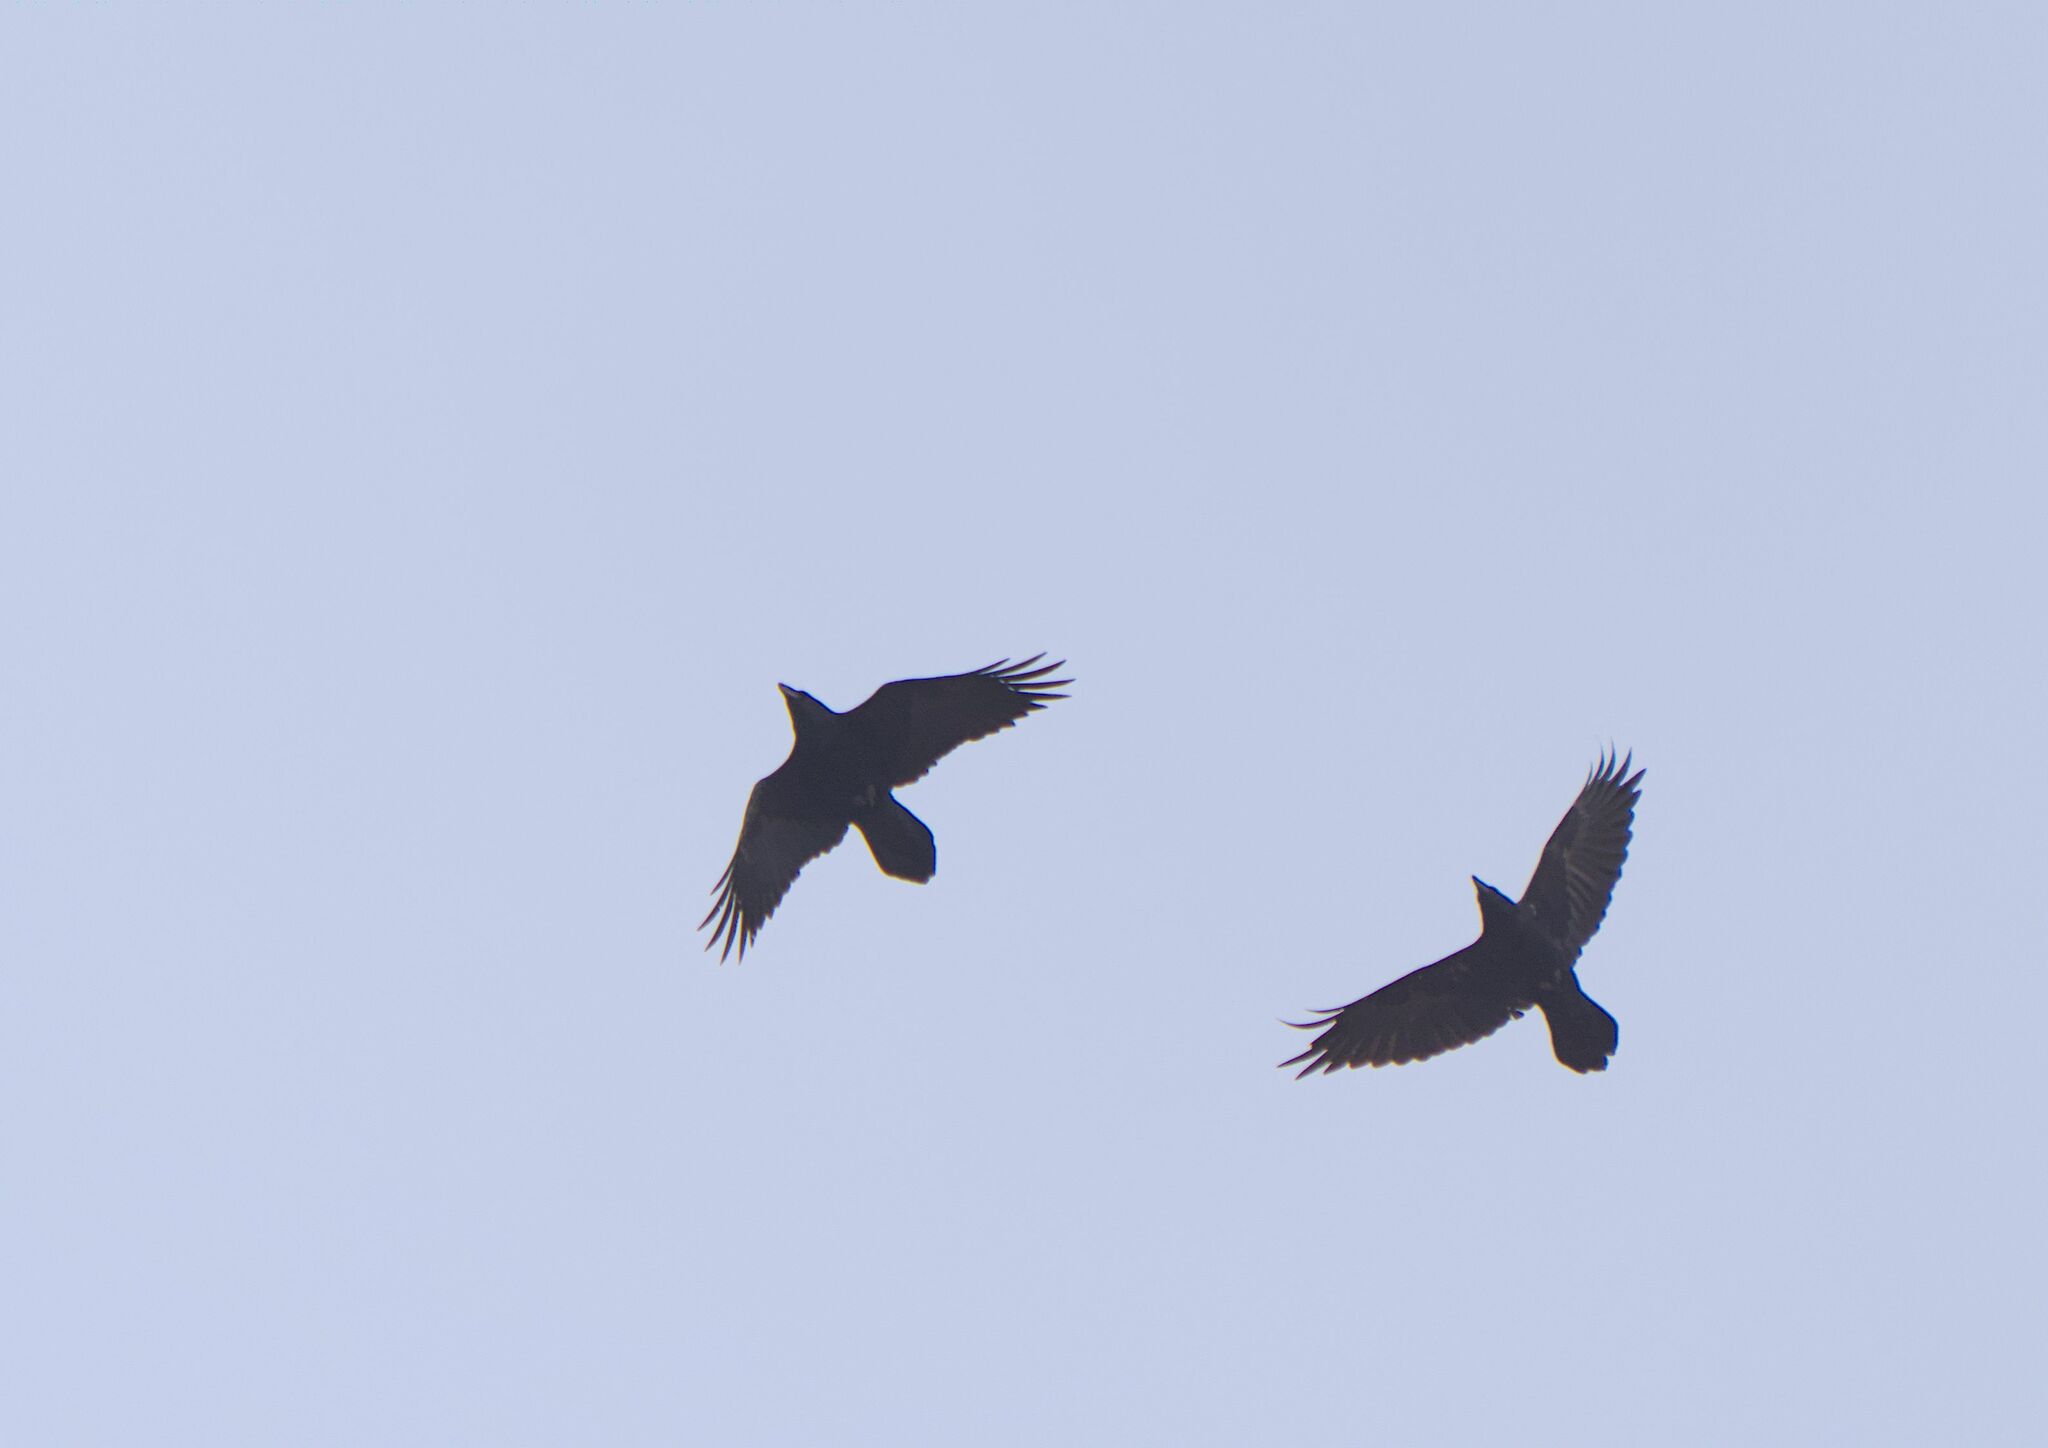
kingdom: Animalia
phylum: Chordata
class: Aves
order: Passeriformes
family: Corvidae
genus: Corvus
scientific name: Corvus corax
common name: Common raven
